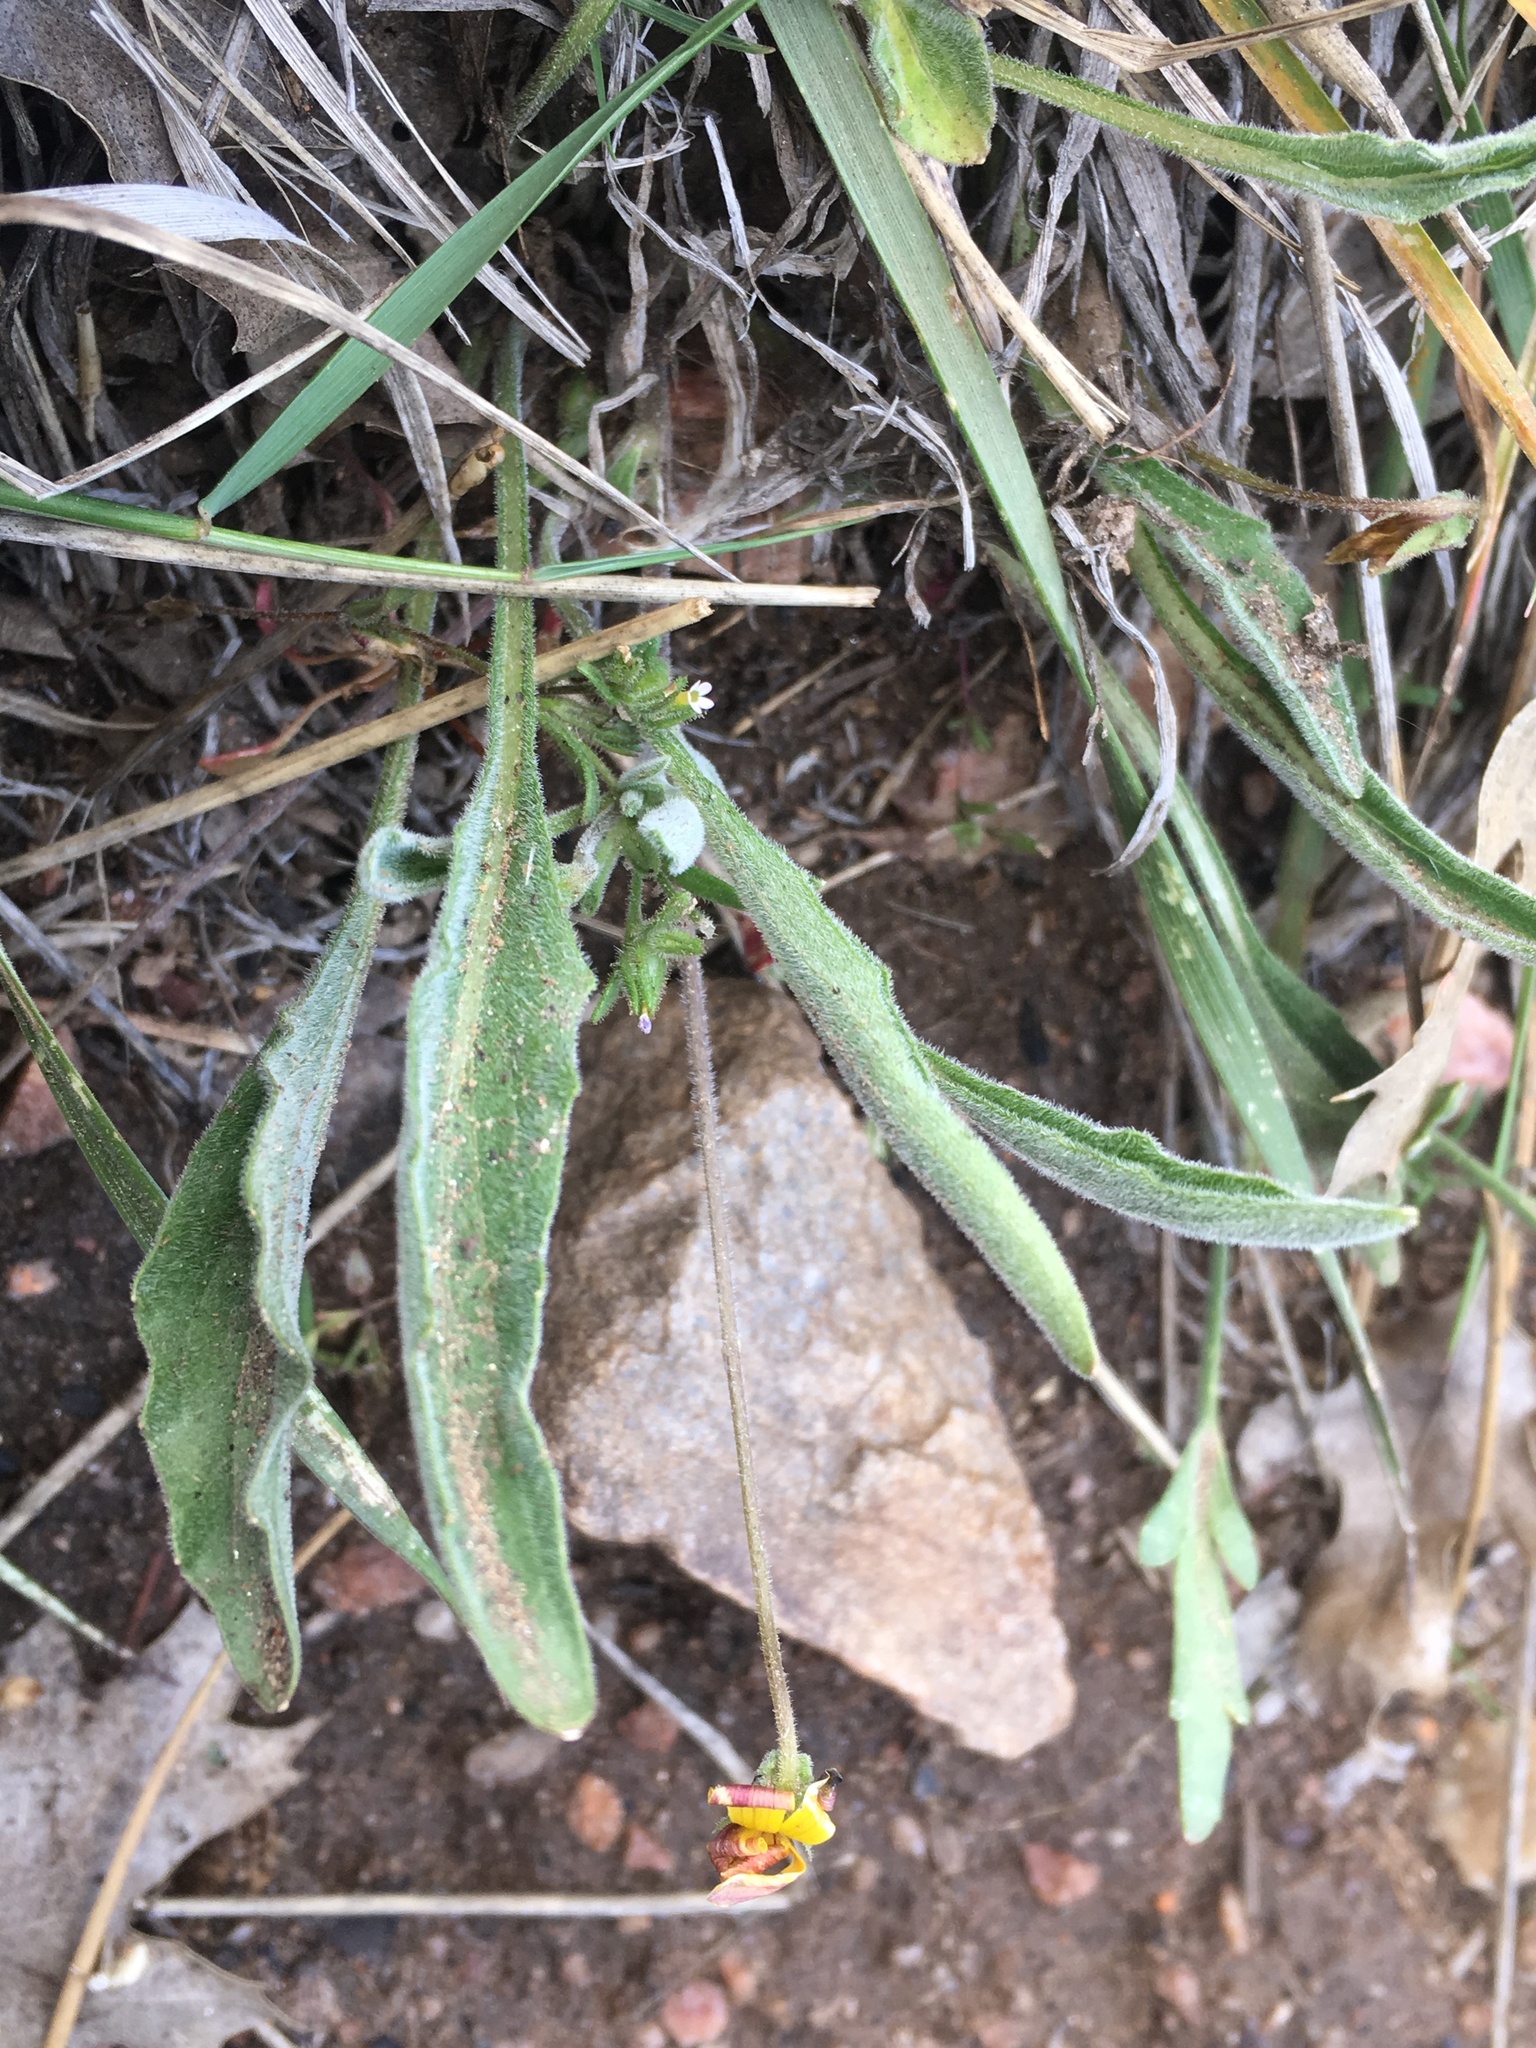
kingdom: Plantae
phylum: Tracheophyta
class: Magnoliopsida
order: Malpighiales
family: Violaceae
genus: Viola
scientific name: Viola pinetorum
